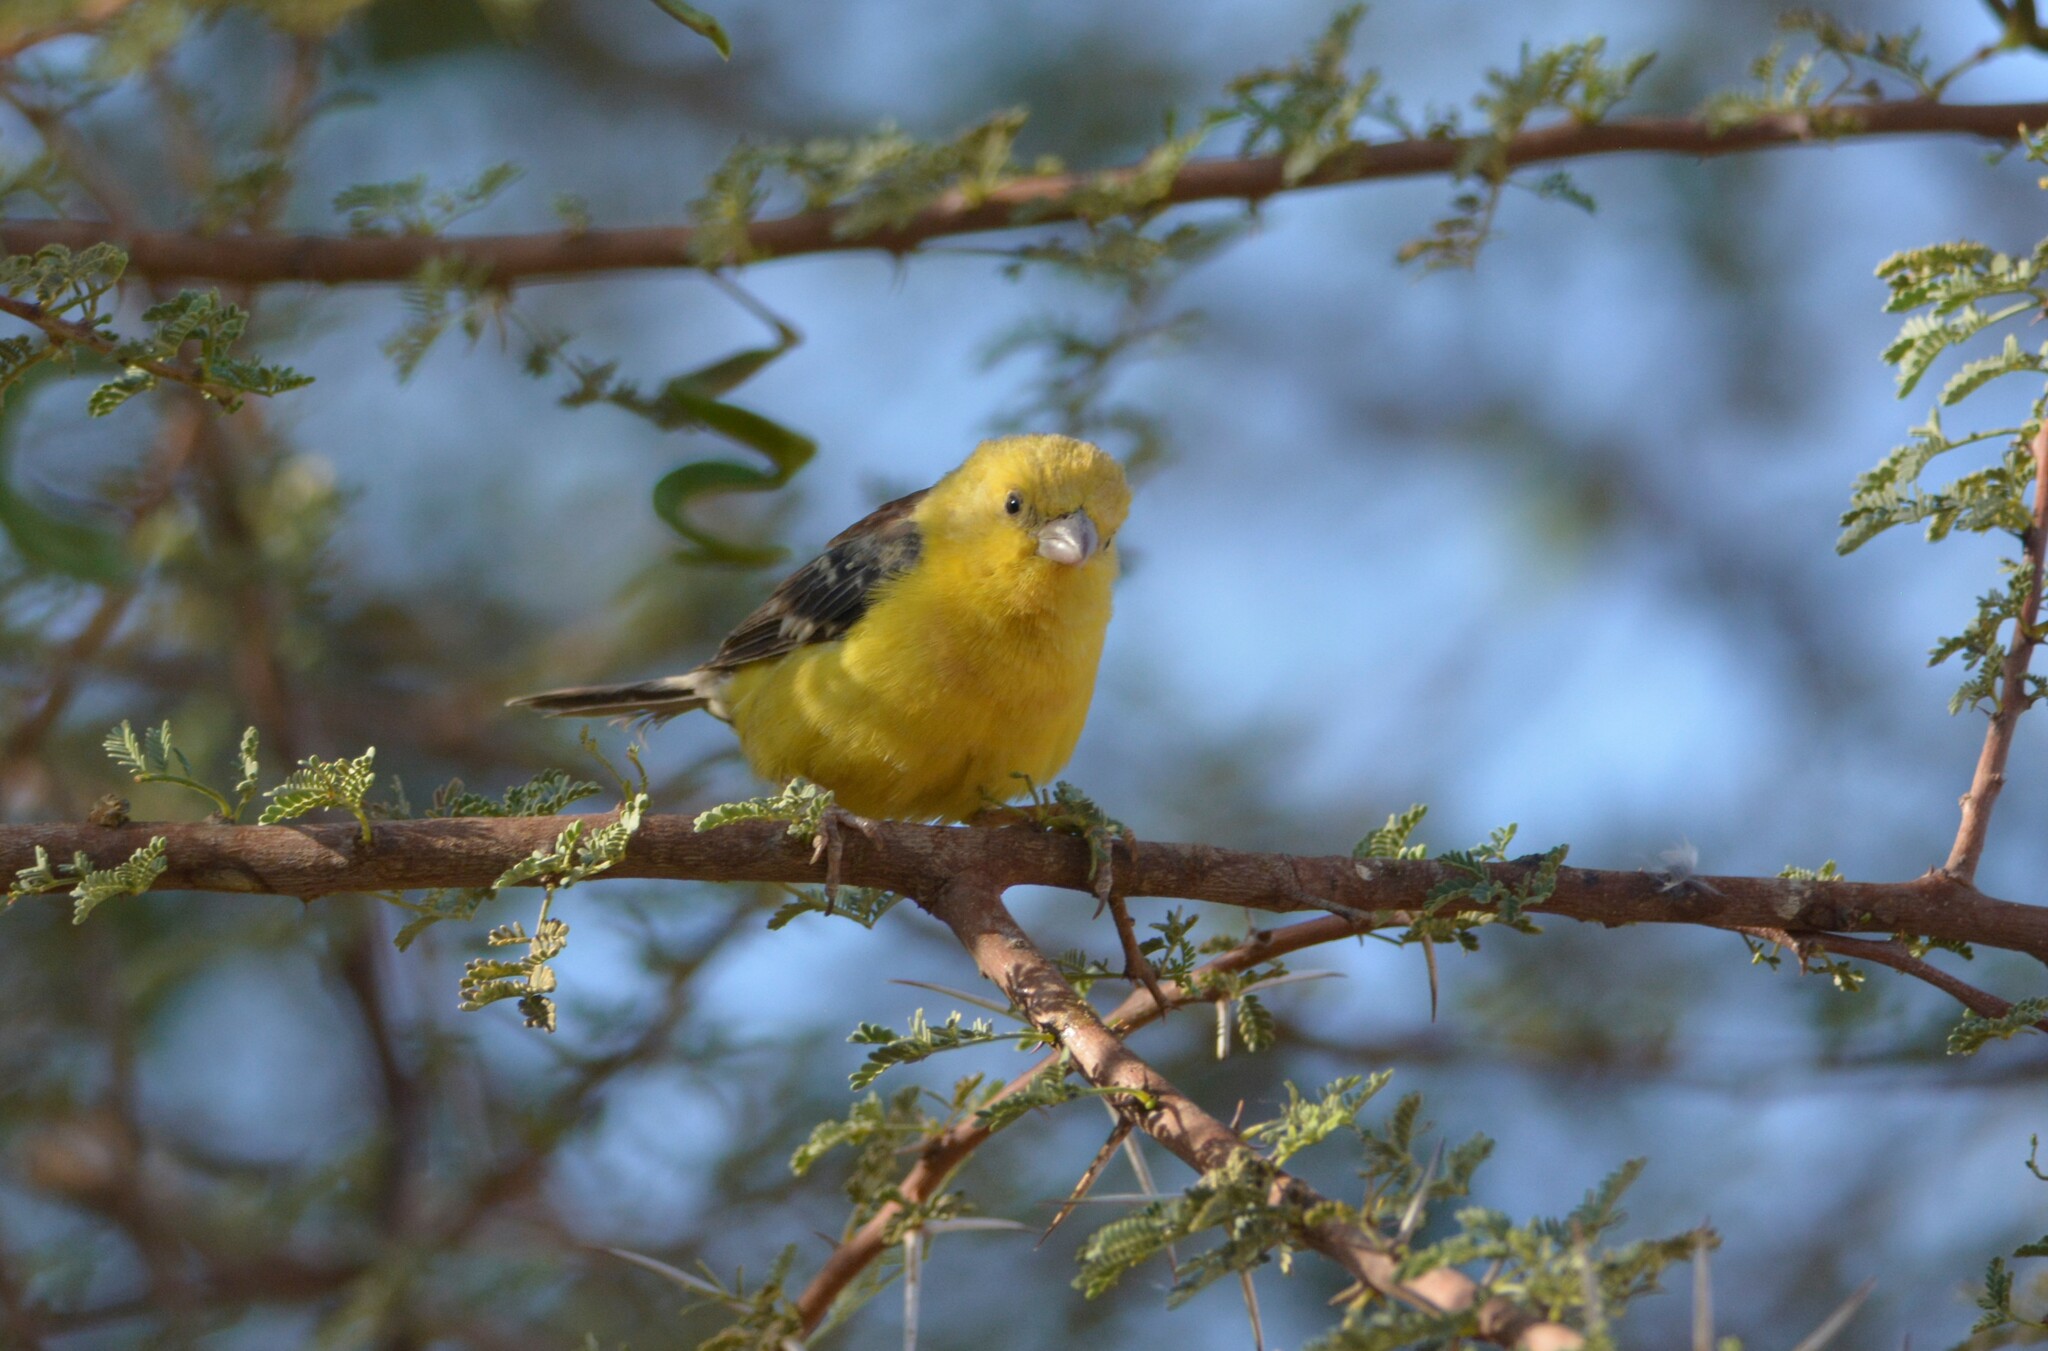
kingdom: Animalia
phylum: Chordata
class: Aves
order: Passeriformes
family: Passeridae
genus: Passer
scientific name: Passer luteus
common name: Sudan golden sparrow
